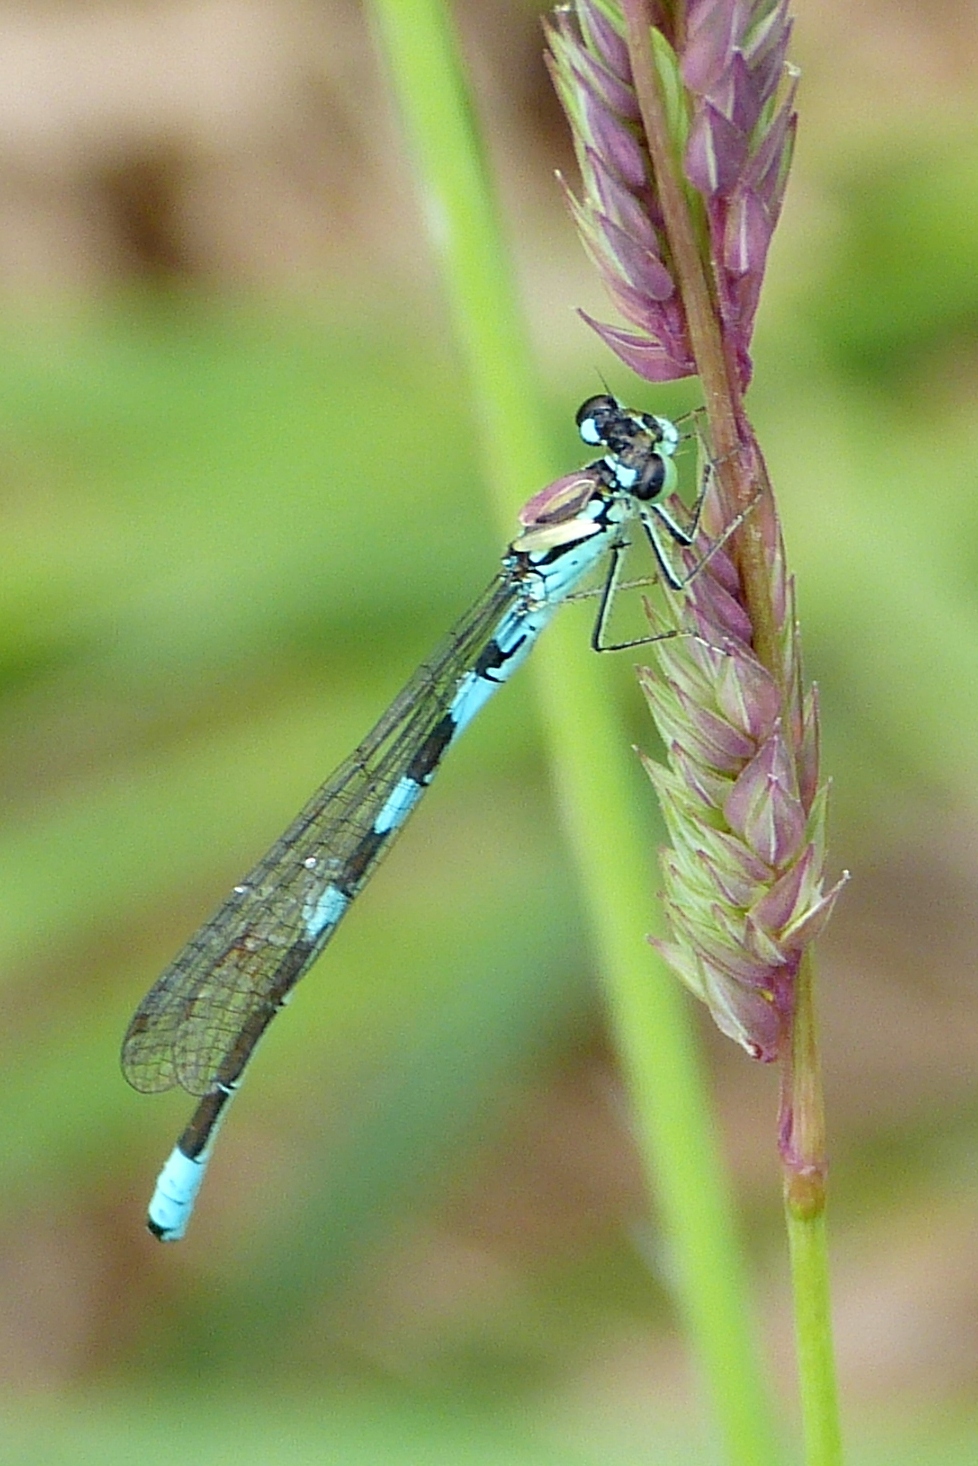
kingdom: Animalia
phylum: Arthropoda
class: Insecta
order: Odonata
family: Coenagrionidae
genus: Coenagrion
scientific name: Coenagrion resolutum
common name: Taiga bluet
